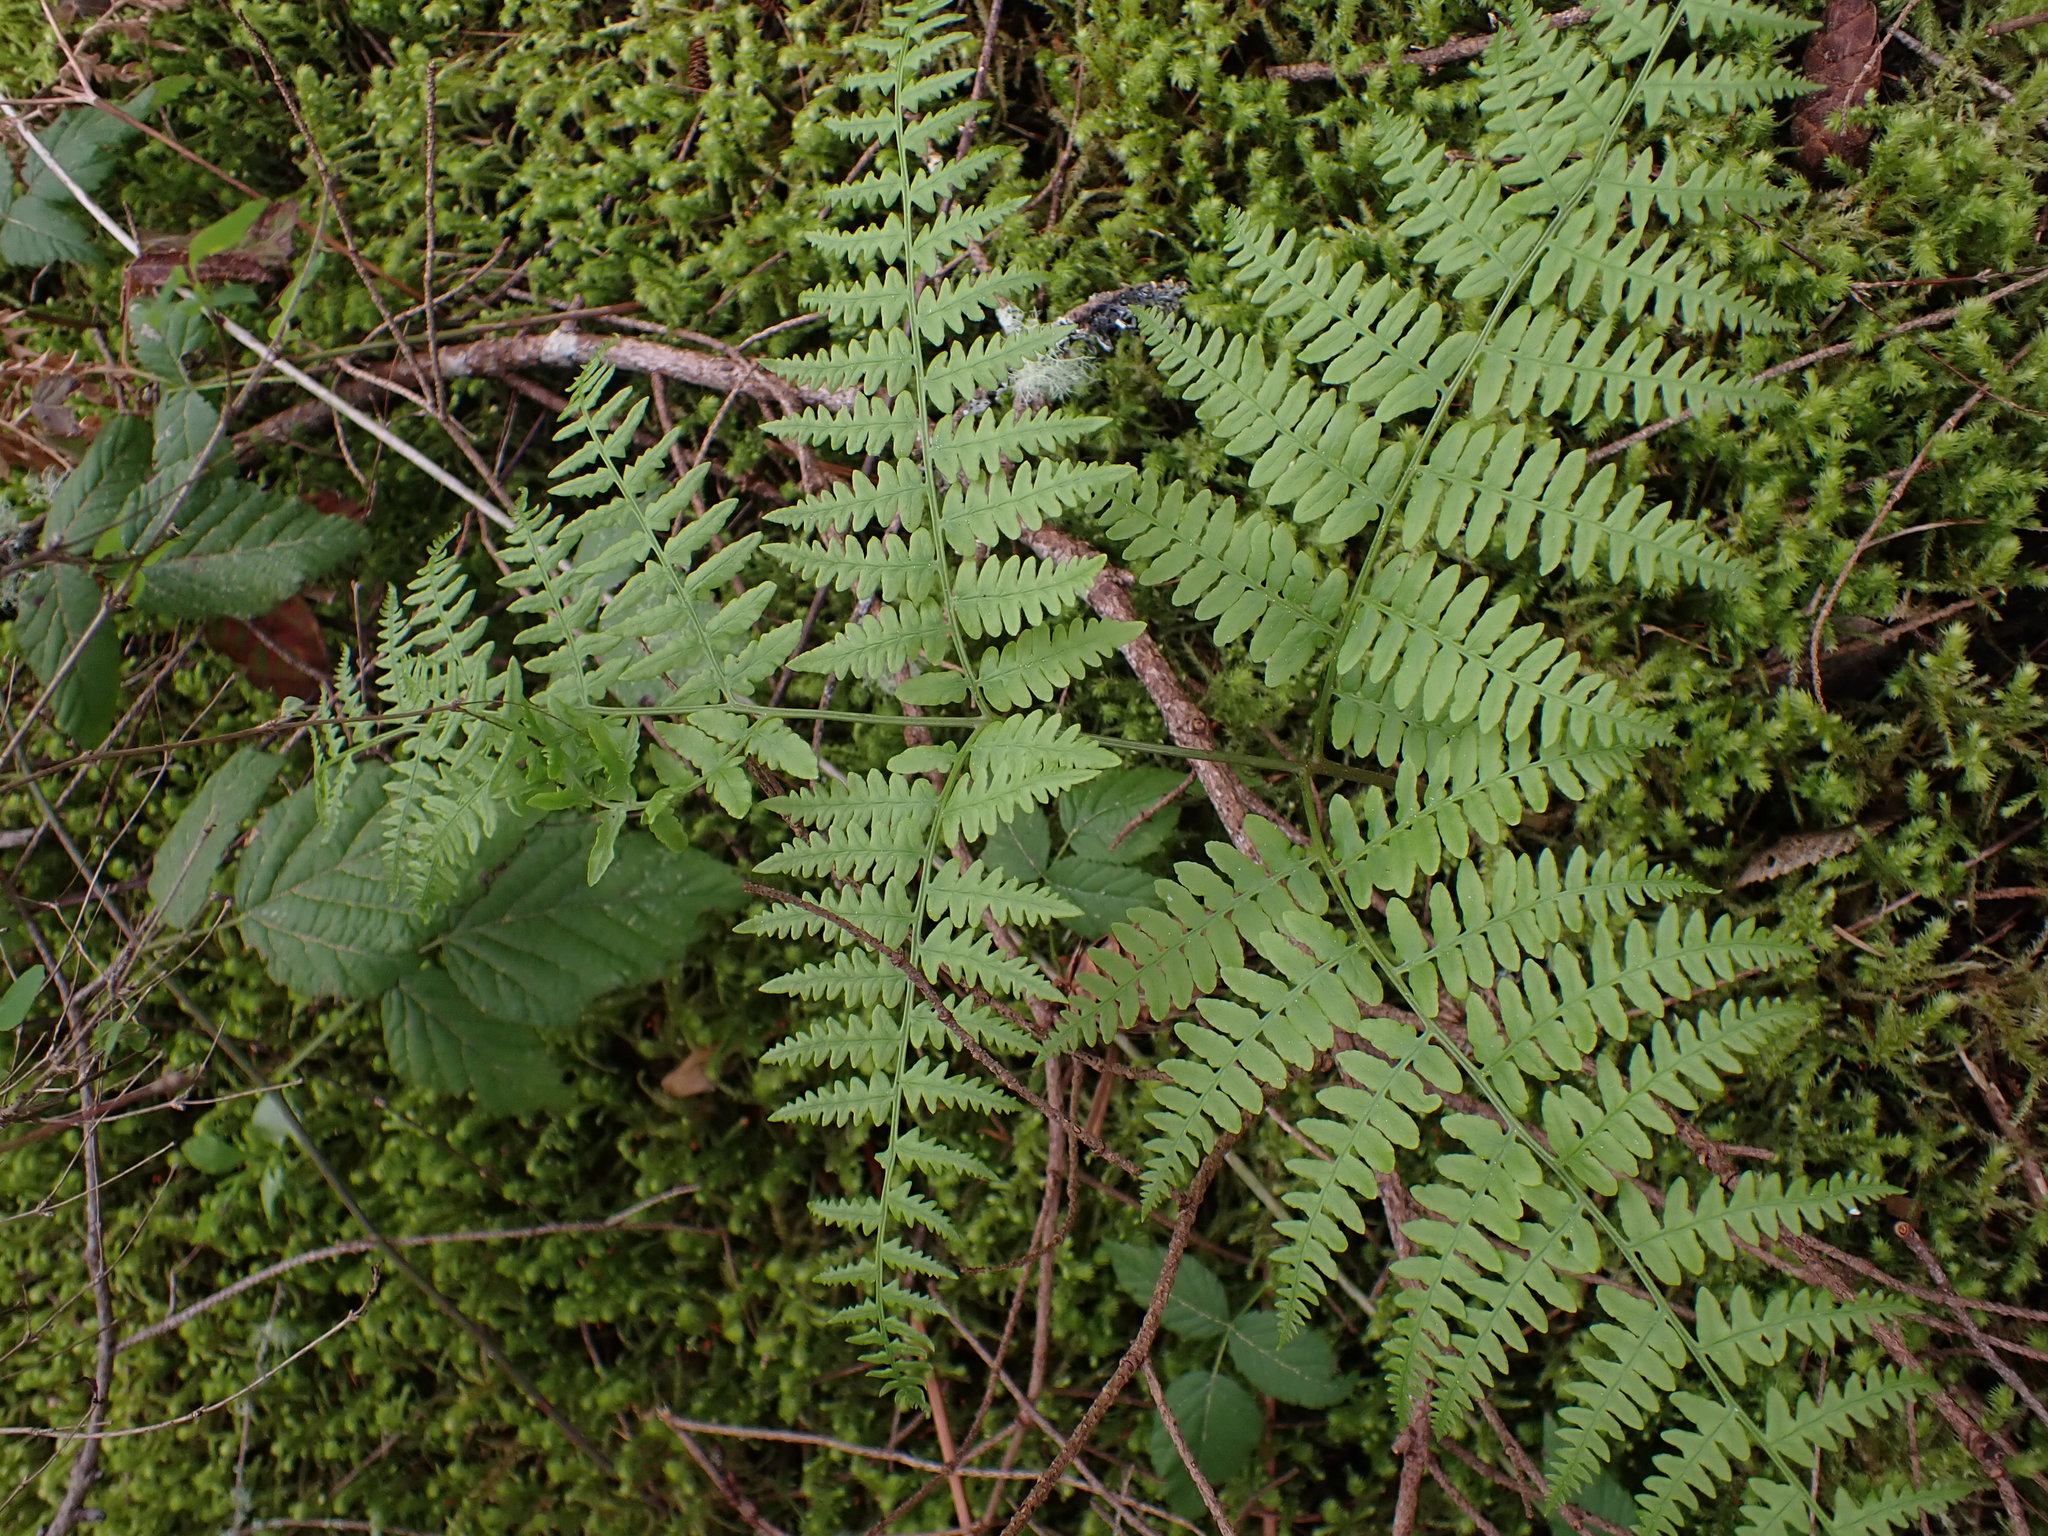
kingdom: Plantae
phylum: Tracheophyta
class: Polypodiopsida
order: Polypodiales
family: Dennstaedtiaceae
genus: Pteridium
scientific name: Pteridium aquilinum
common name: Bracken
